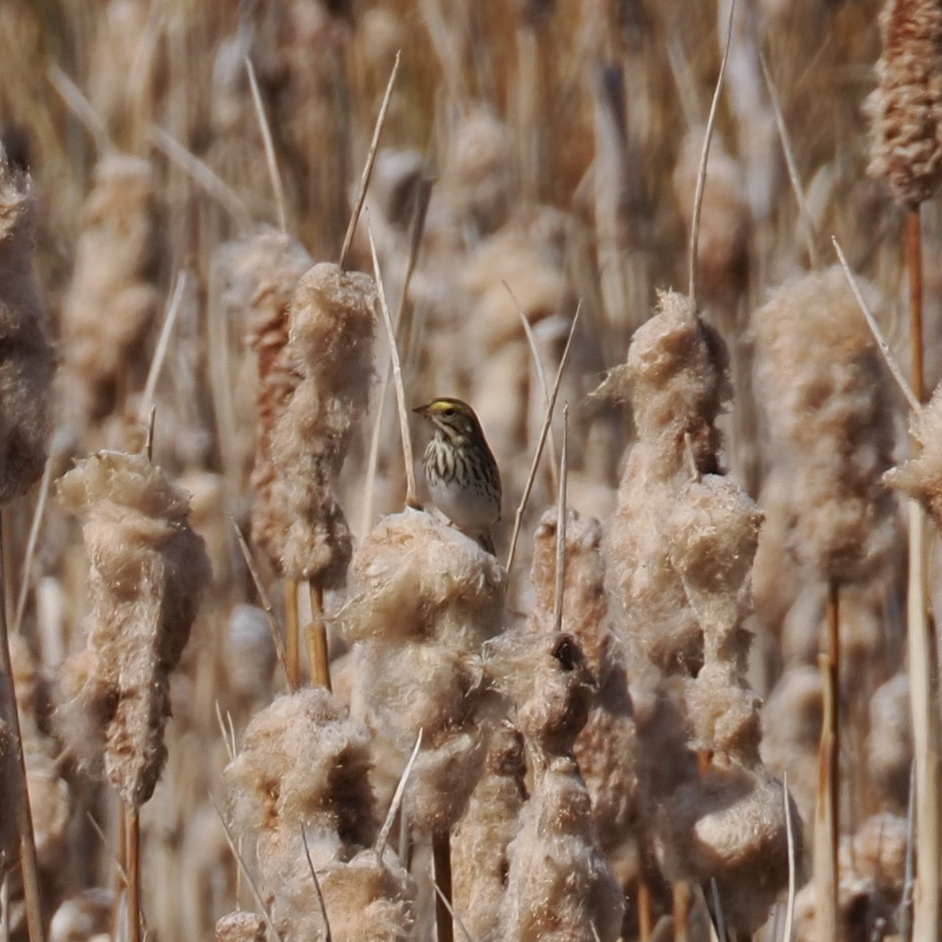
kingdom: Animalia
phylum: Chordata
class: Aves
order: Passeriformes
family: Passerellidae
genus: Passerculus
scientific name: Passerculus sandwichensis
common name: Savannah sparrow
